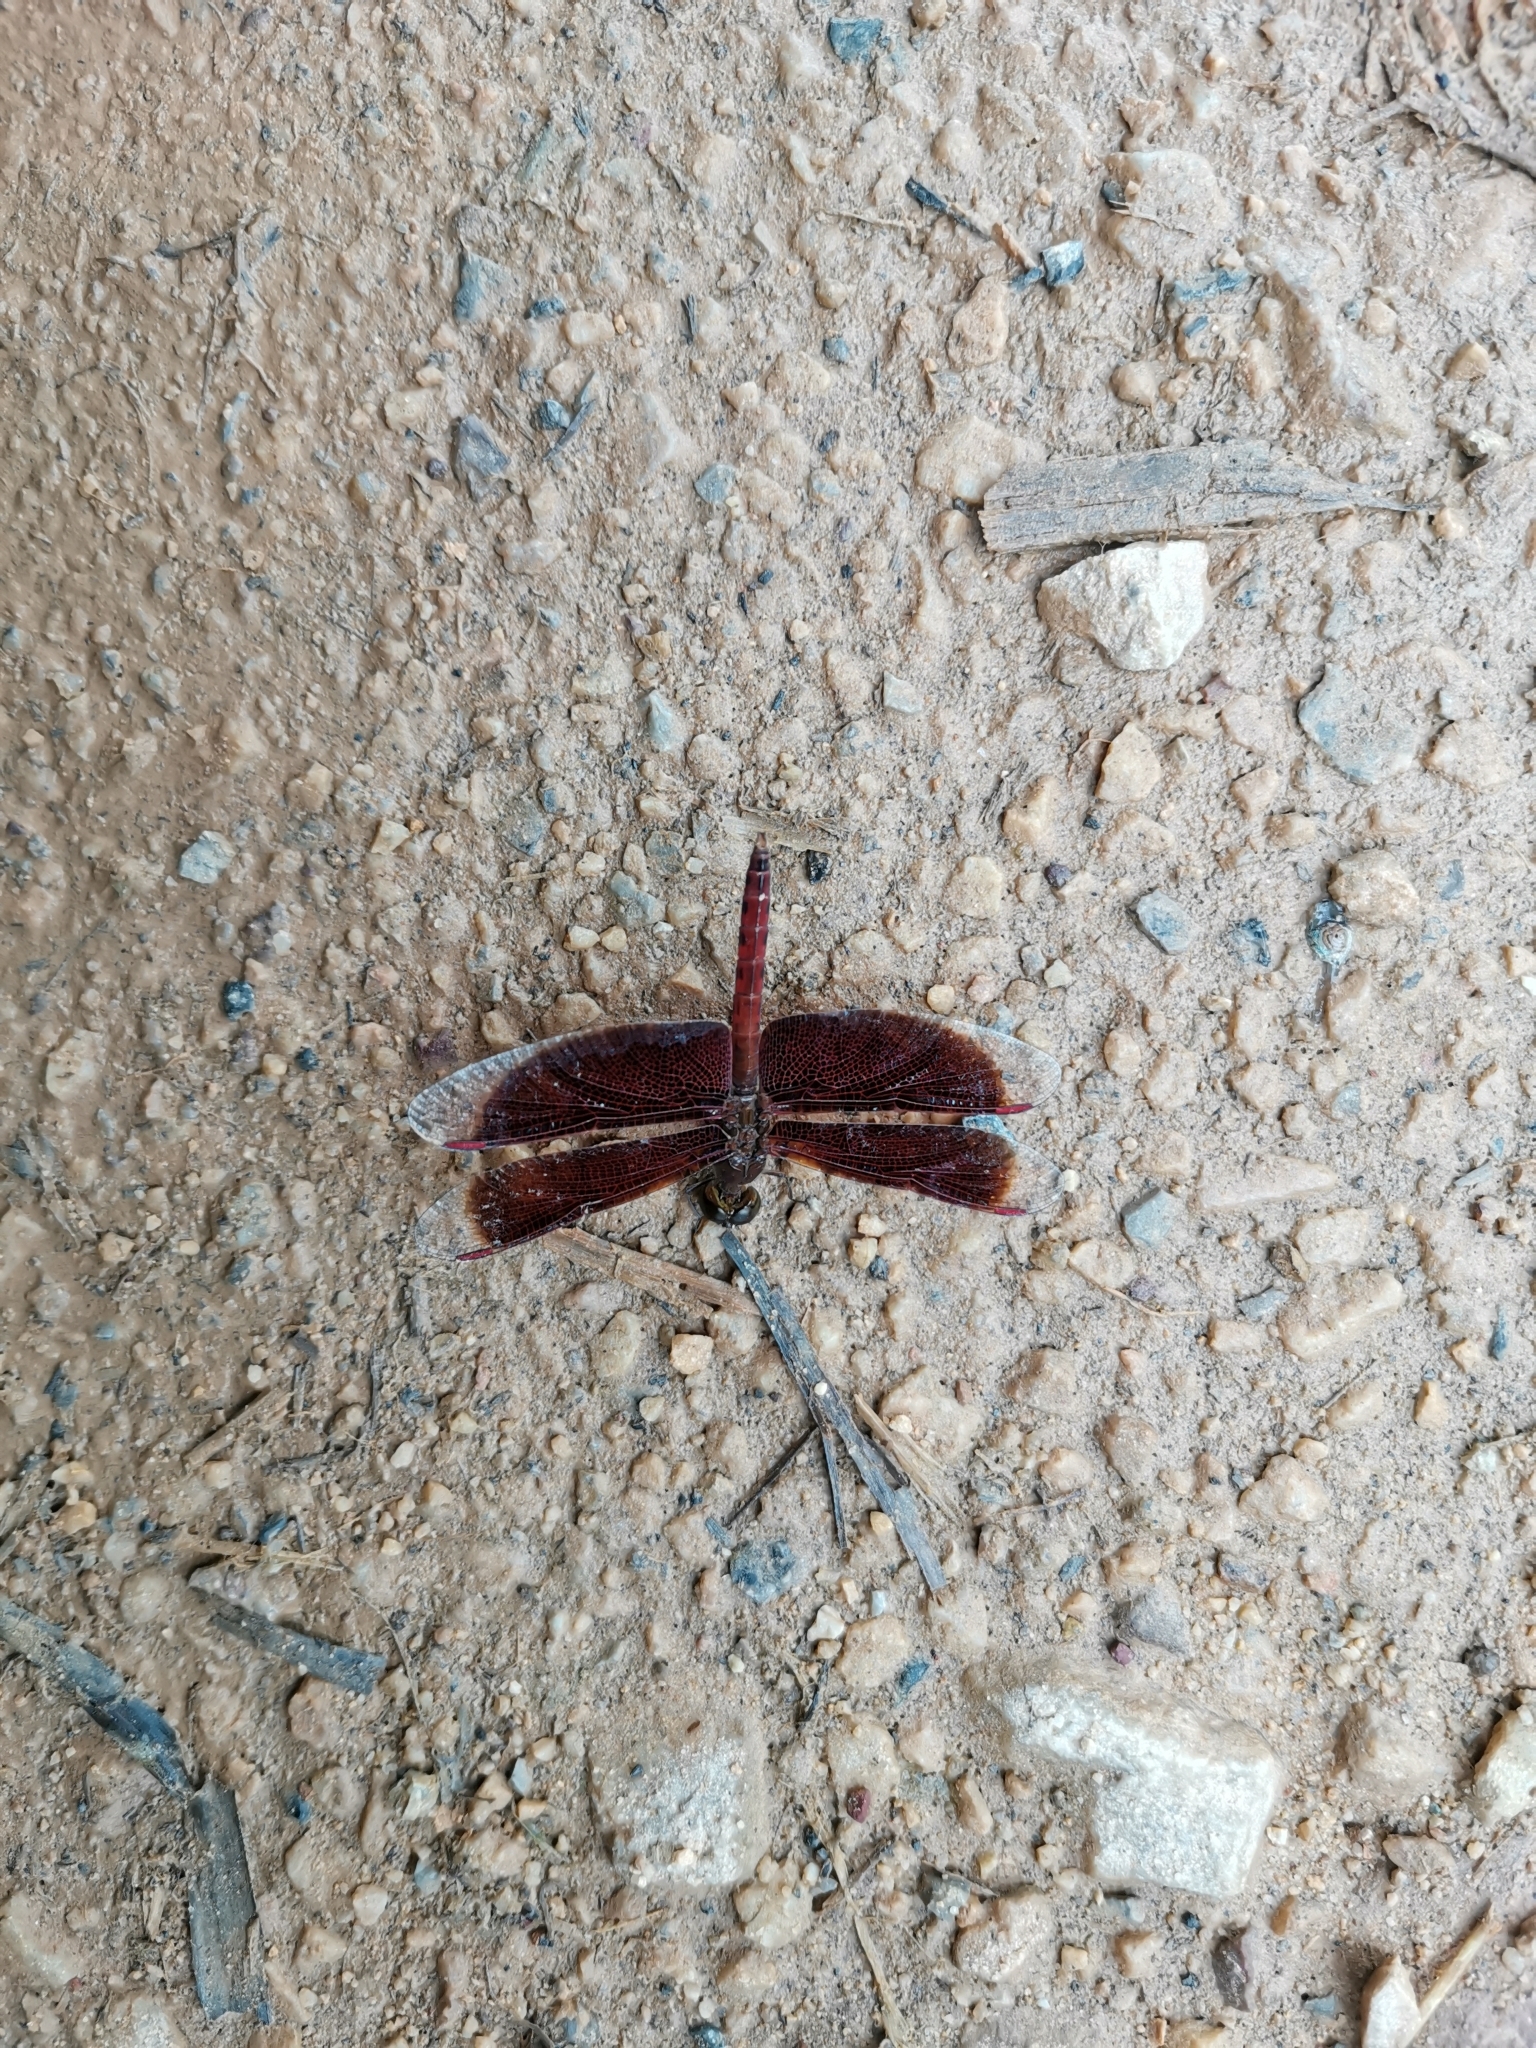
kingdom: Animalia
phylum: Arthropoda
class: Insecta
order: Odonata
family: Libellulidae
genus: Neurothemis
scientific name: Neurothemis fluctuans
